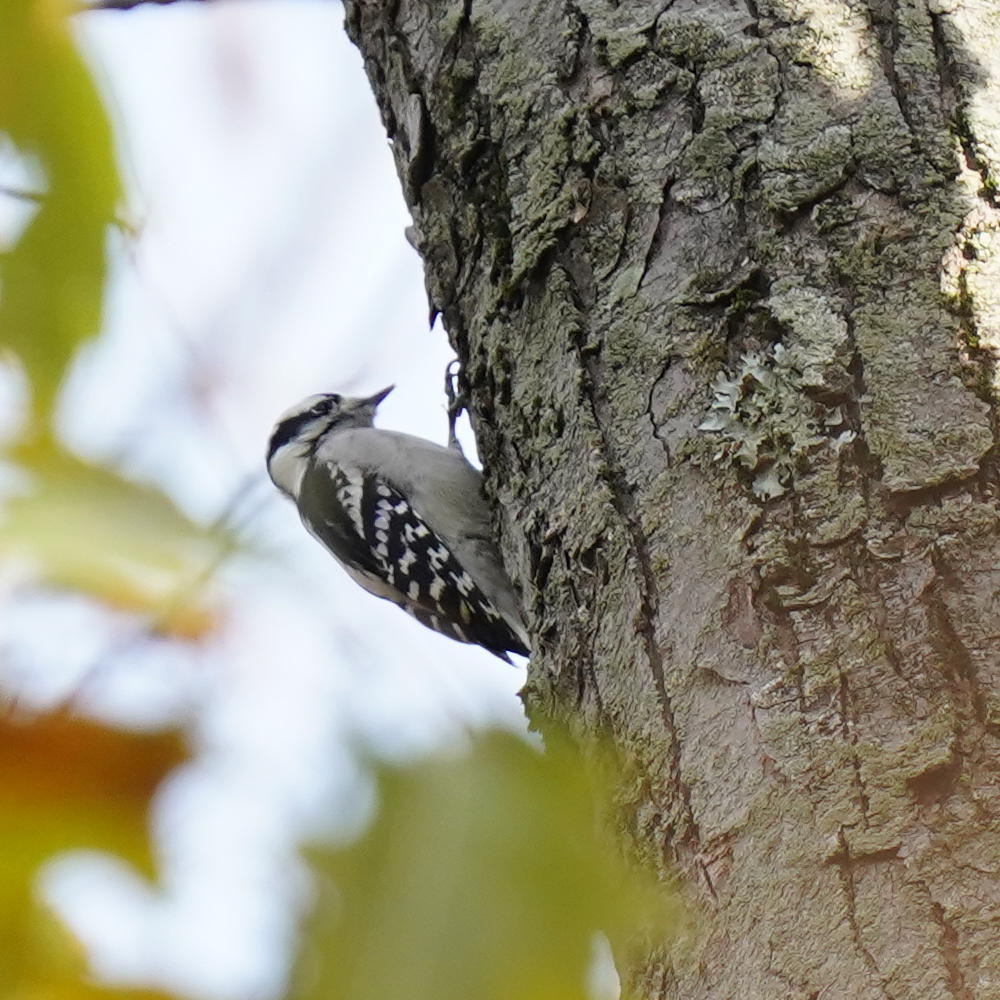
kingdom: Animalia
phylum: Chordata
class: Aves
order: Piciformes
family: Picidae
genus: Dryobates
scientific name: Dryobates pubescens
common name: Downy woodpecker
